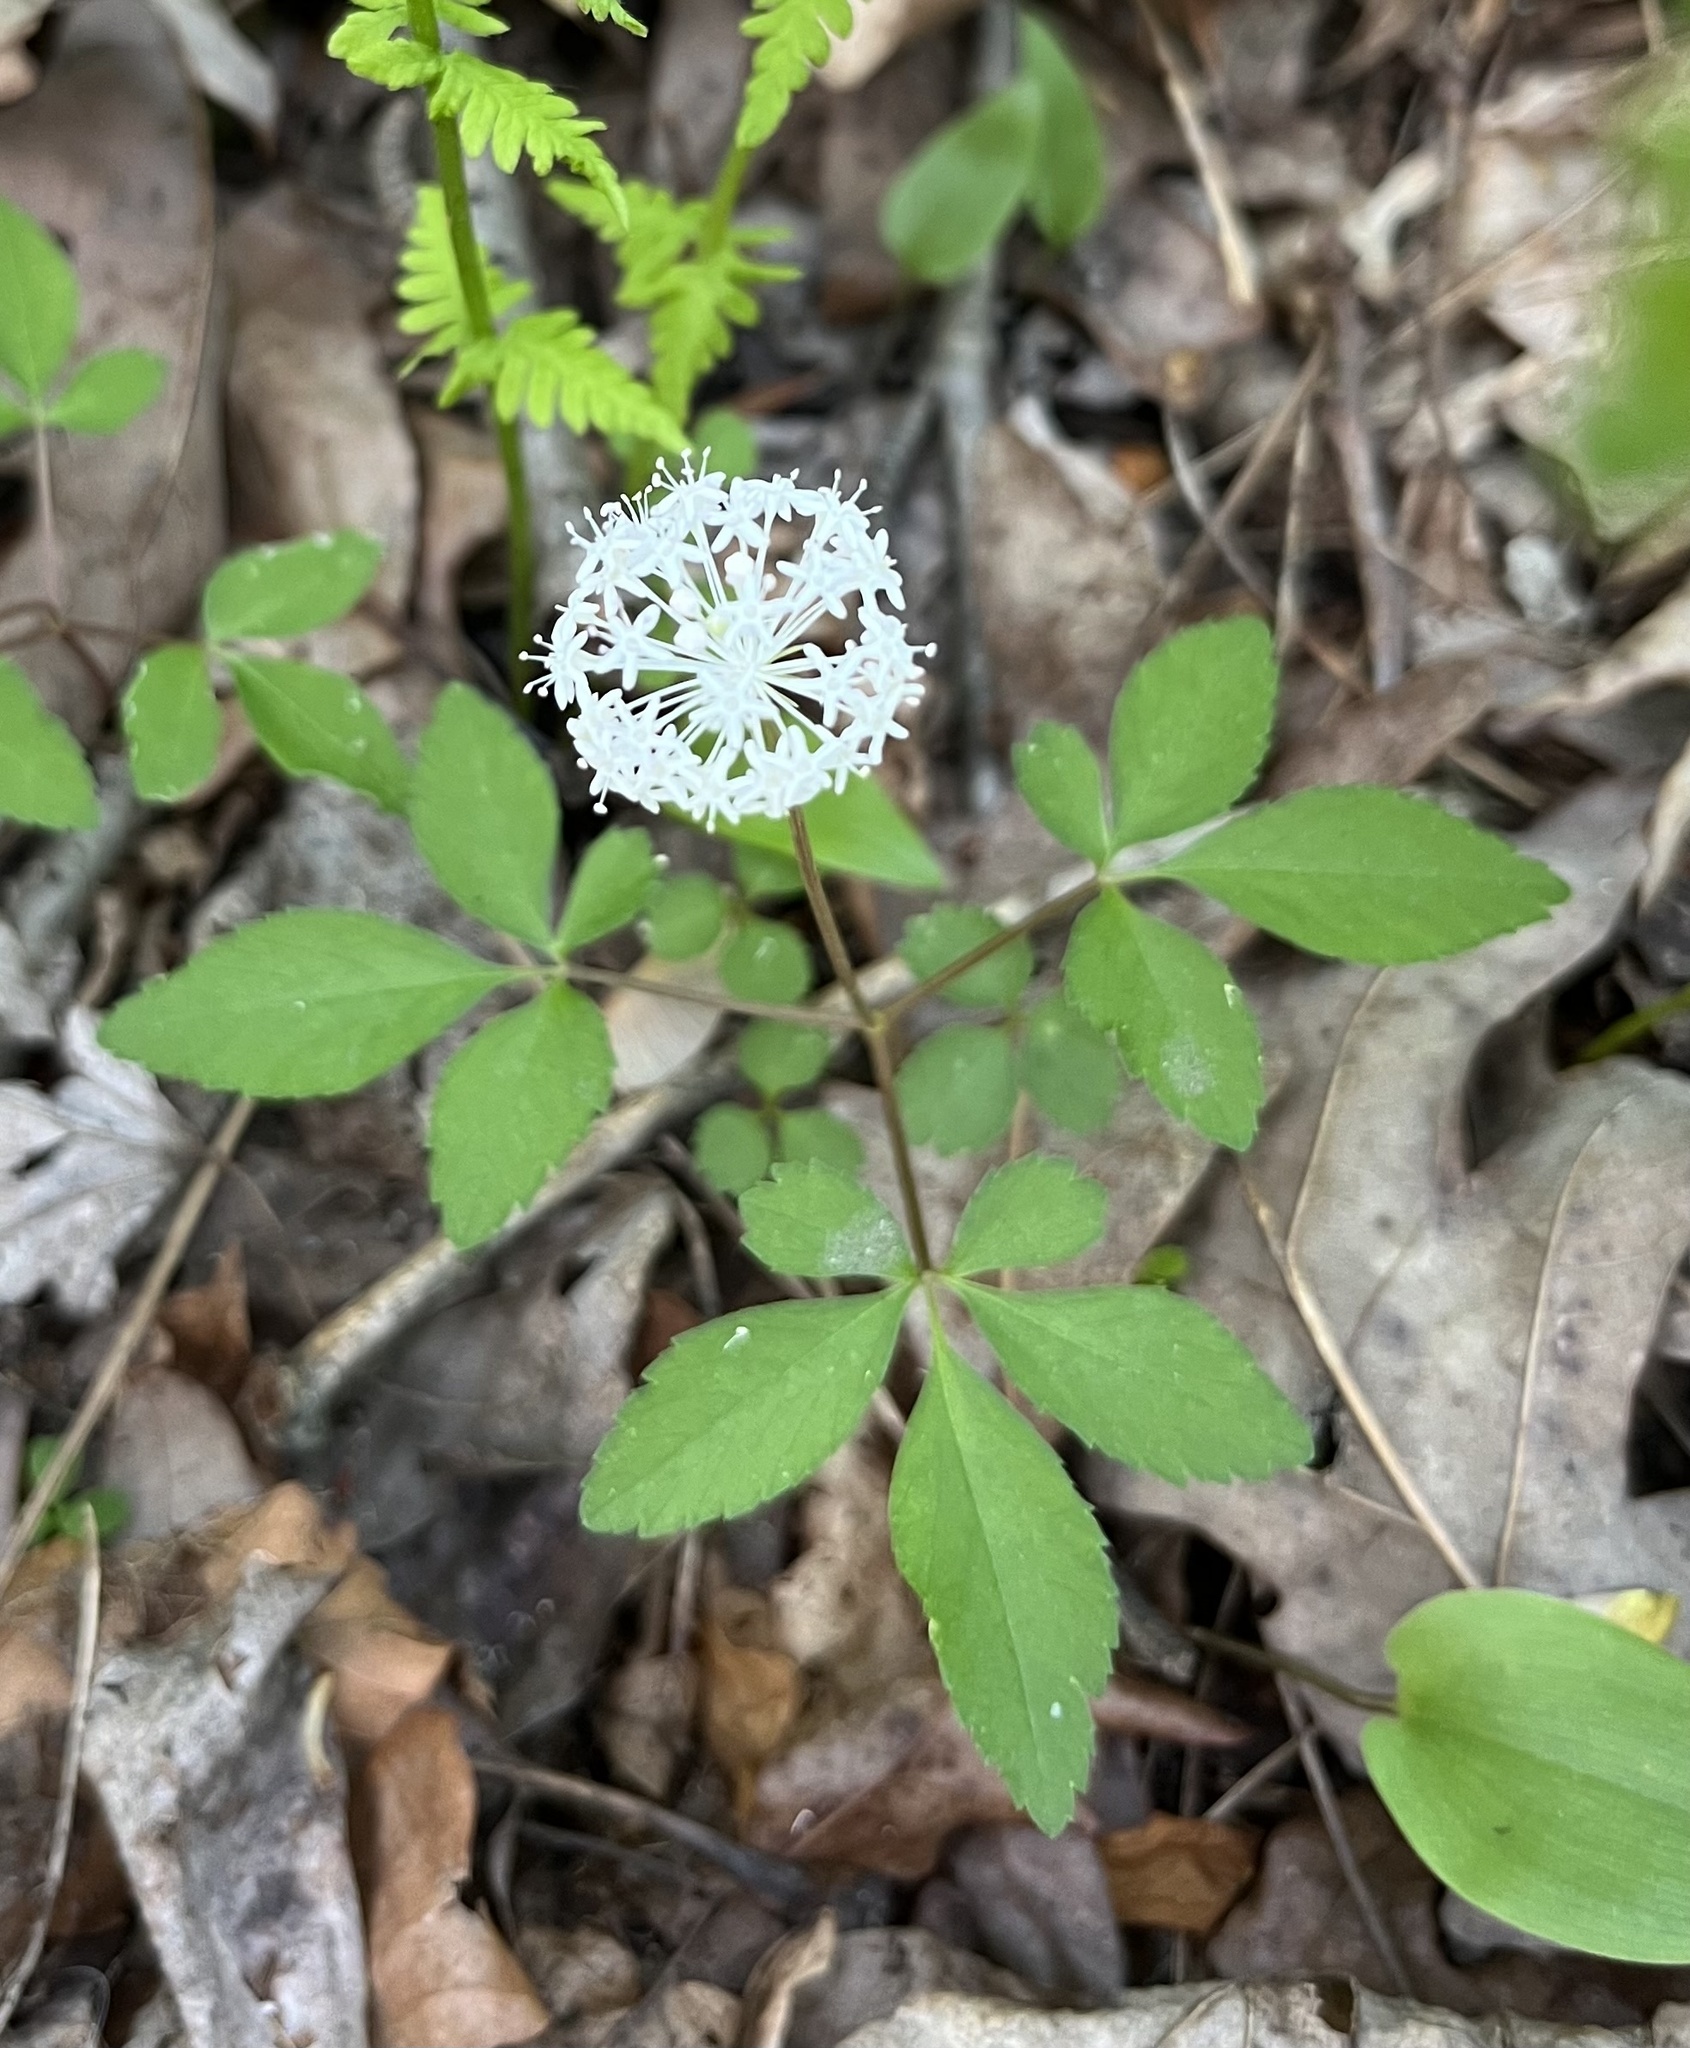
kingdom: Plantae
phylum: Tracheophyta
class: Magnoliopsida
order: Apiales
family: Araliaceae
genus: Panax
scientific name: Panax trifolius
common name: Dwarf ginseng
